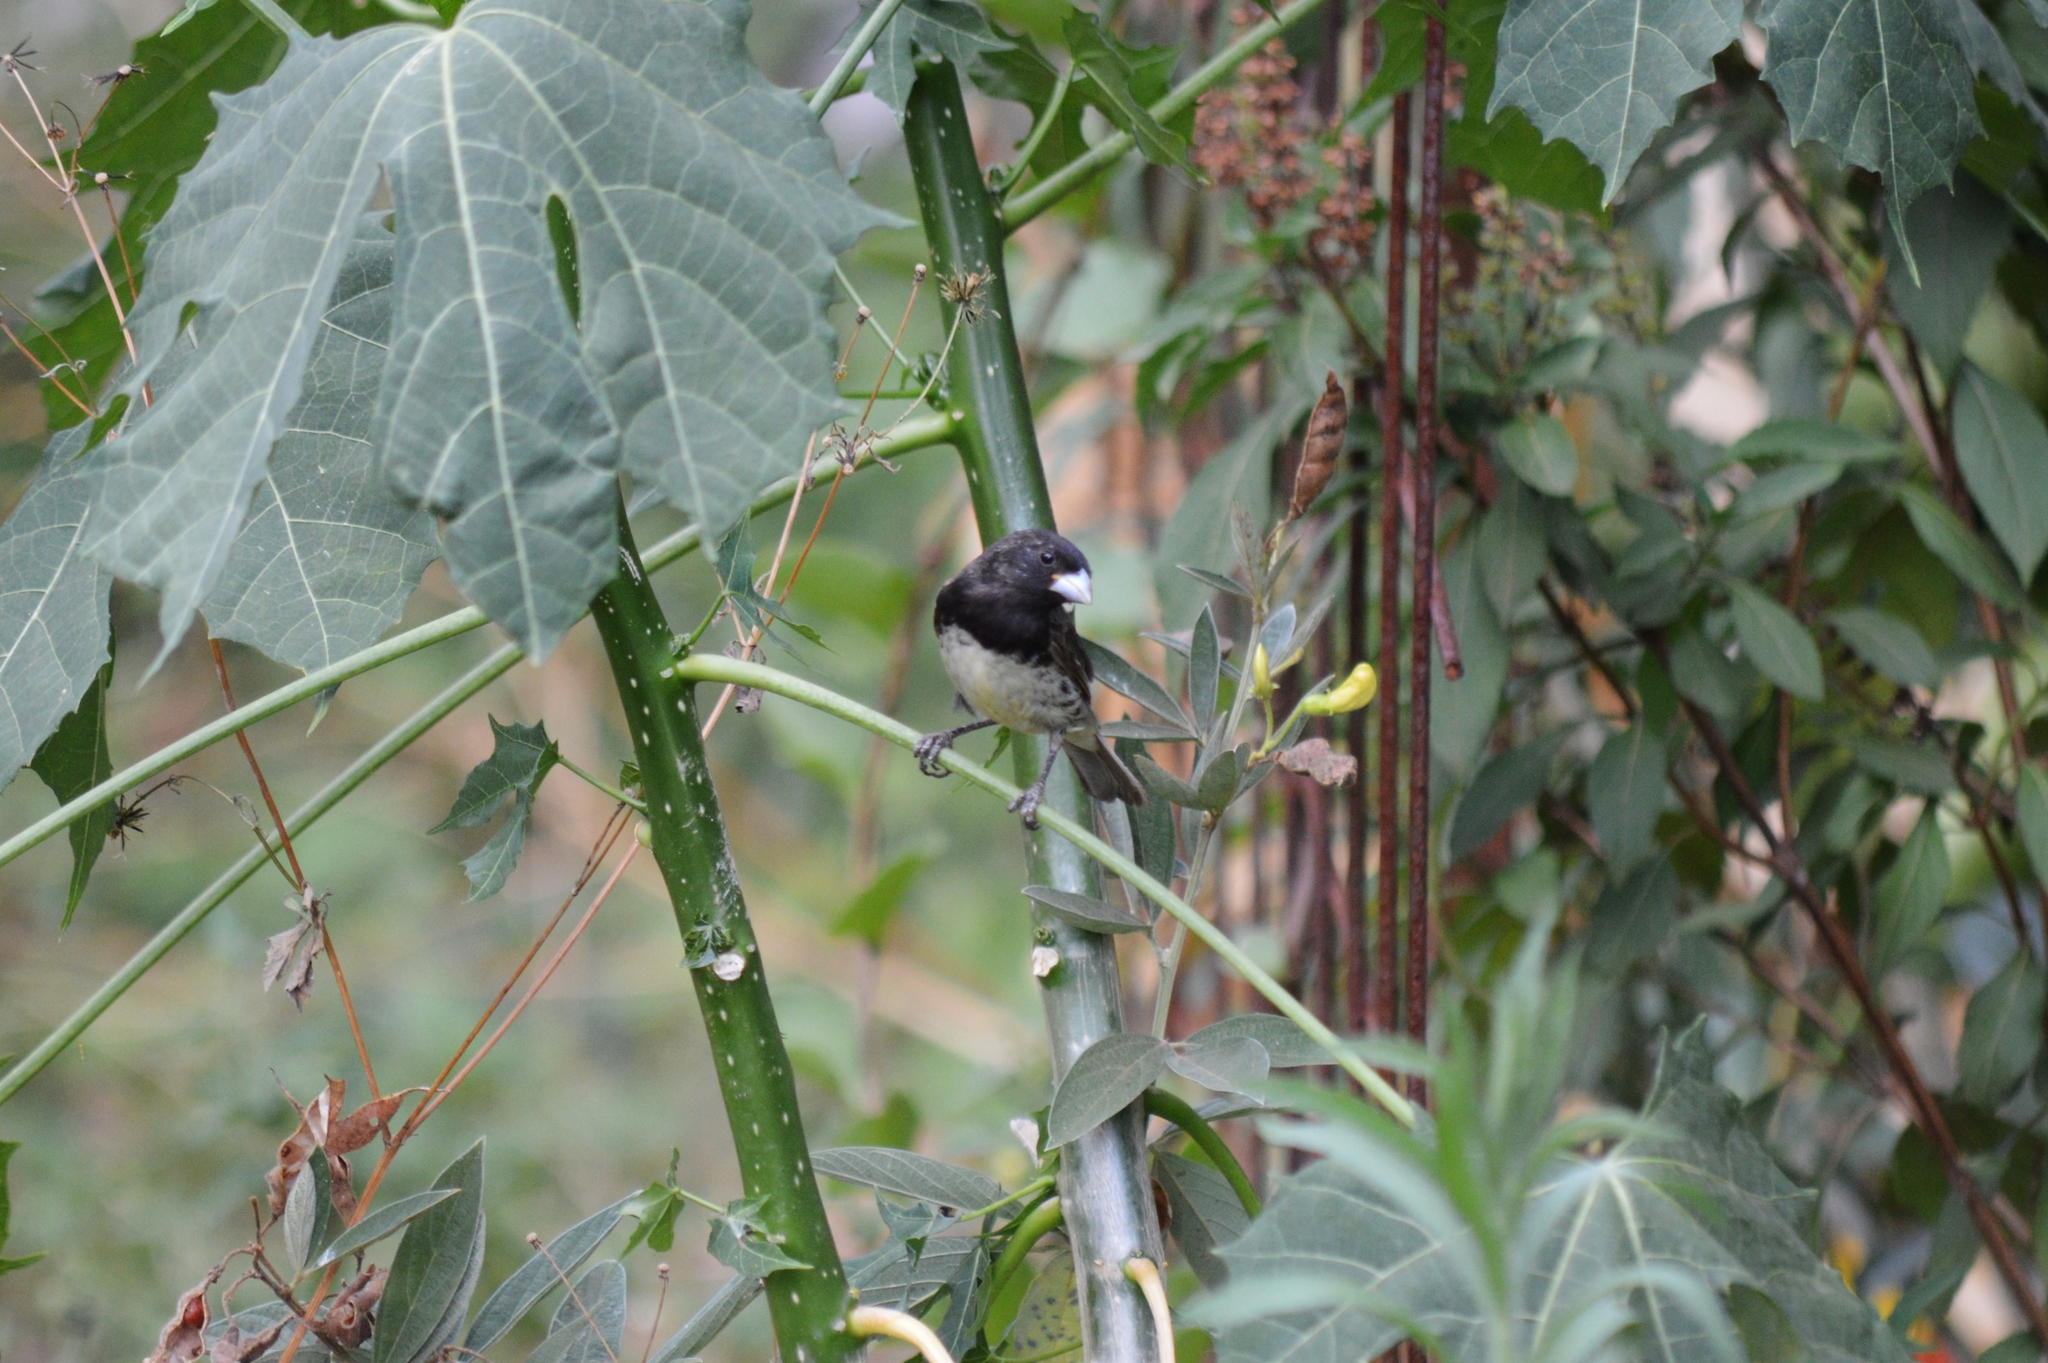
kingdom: Animalia
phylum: Chordata
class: Aves
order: Passeriformes
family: Thraupidae
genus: Sporophila
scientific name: Sporophila nigricollis
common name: Yellow-bellied seedeater
